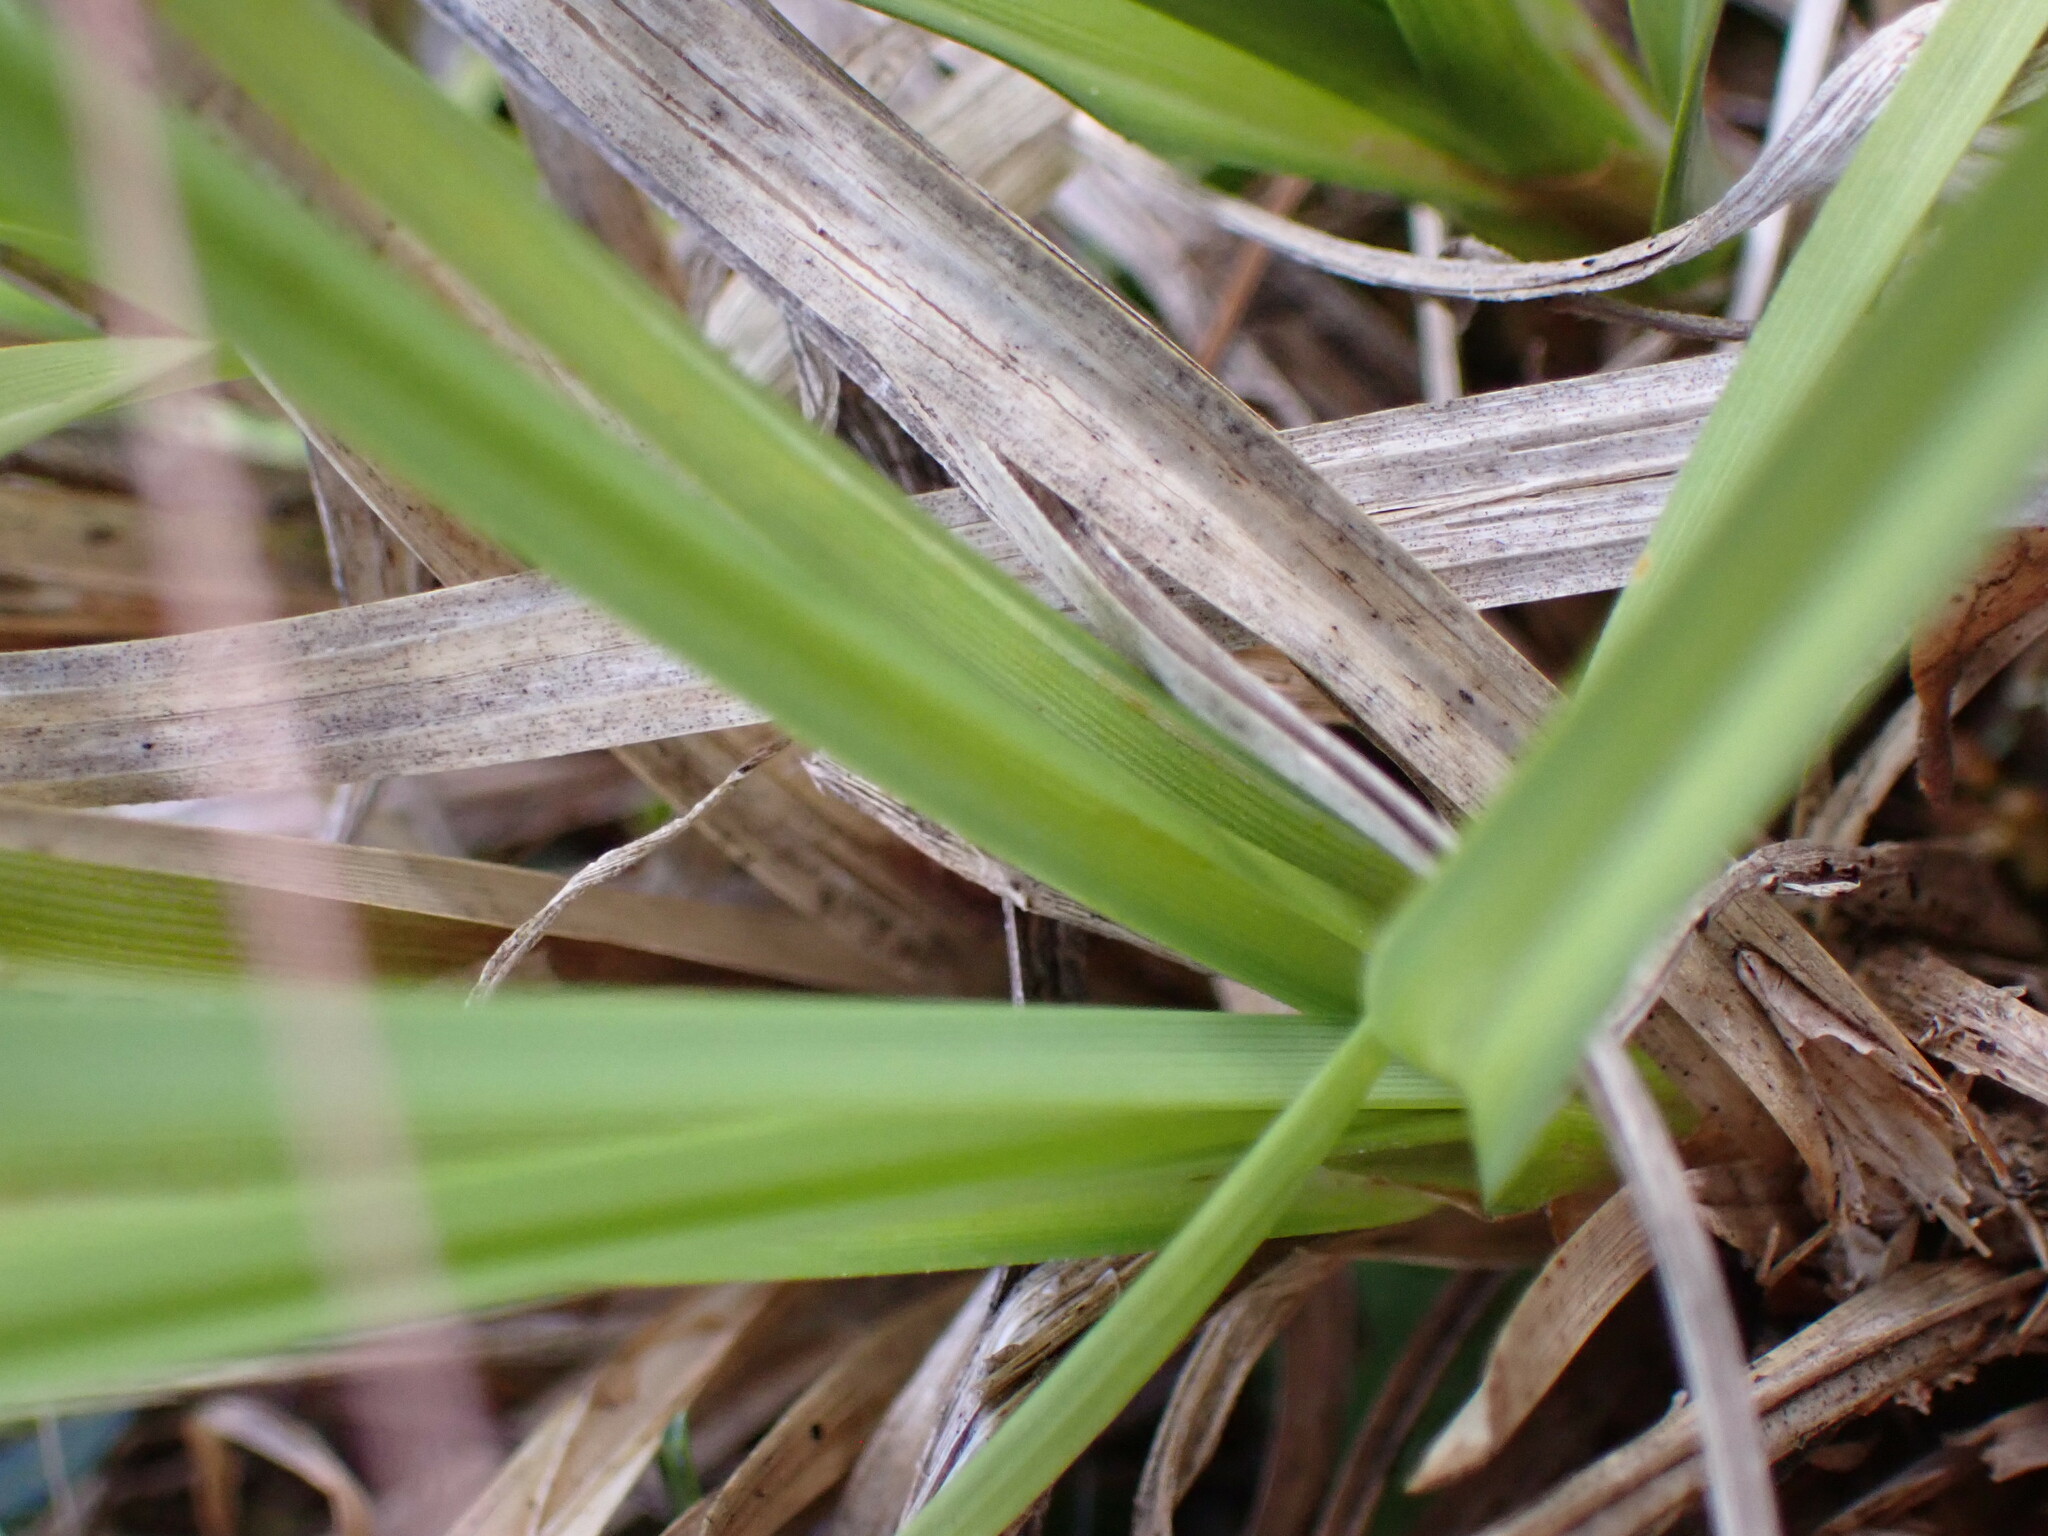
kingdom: Plantae
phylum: Tracheophyta
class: Liliopsida
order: Poales
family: Cyperaceae
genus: Carex
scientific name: Carex gaudichaudiana
